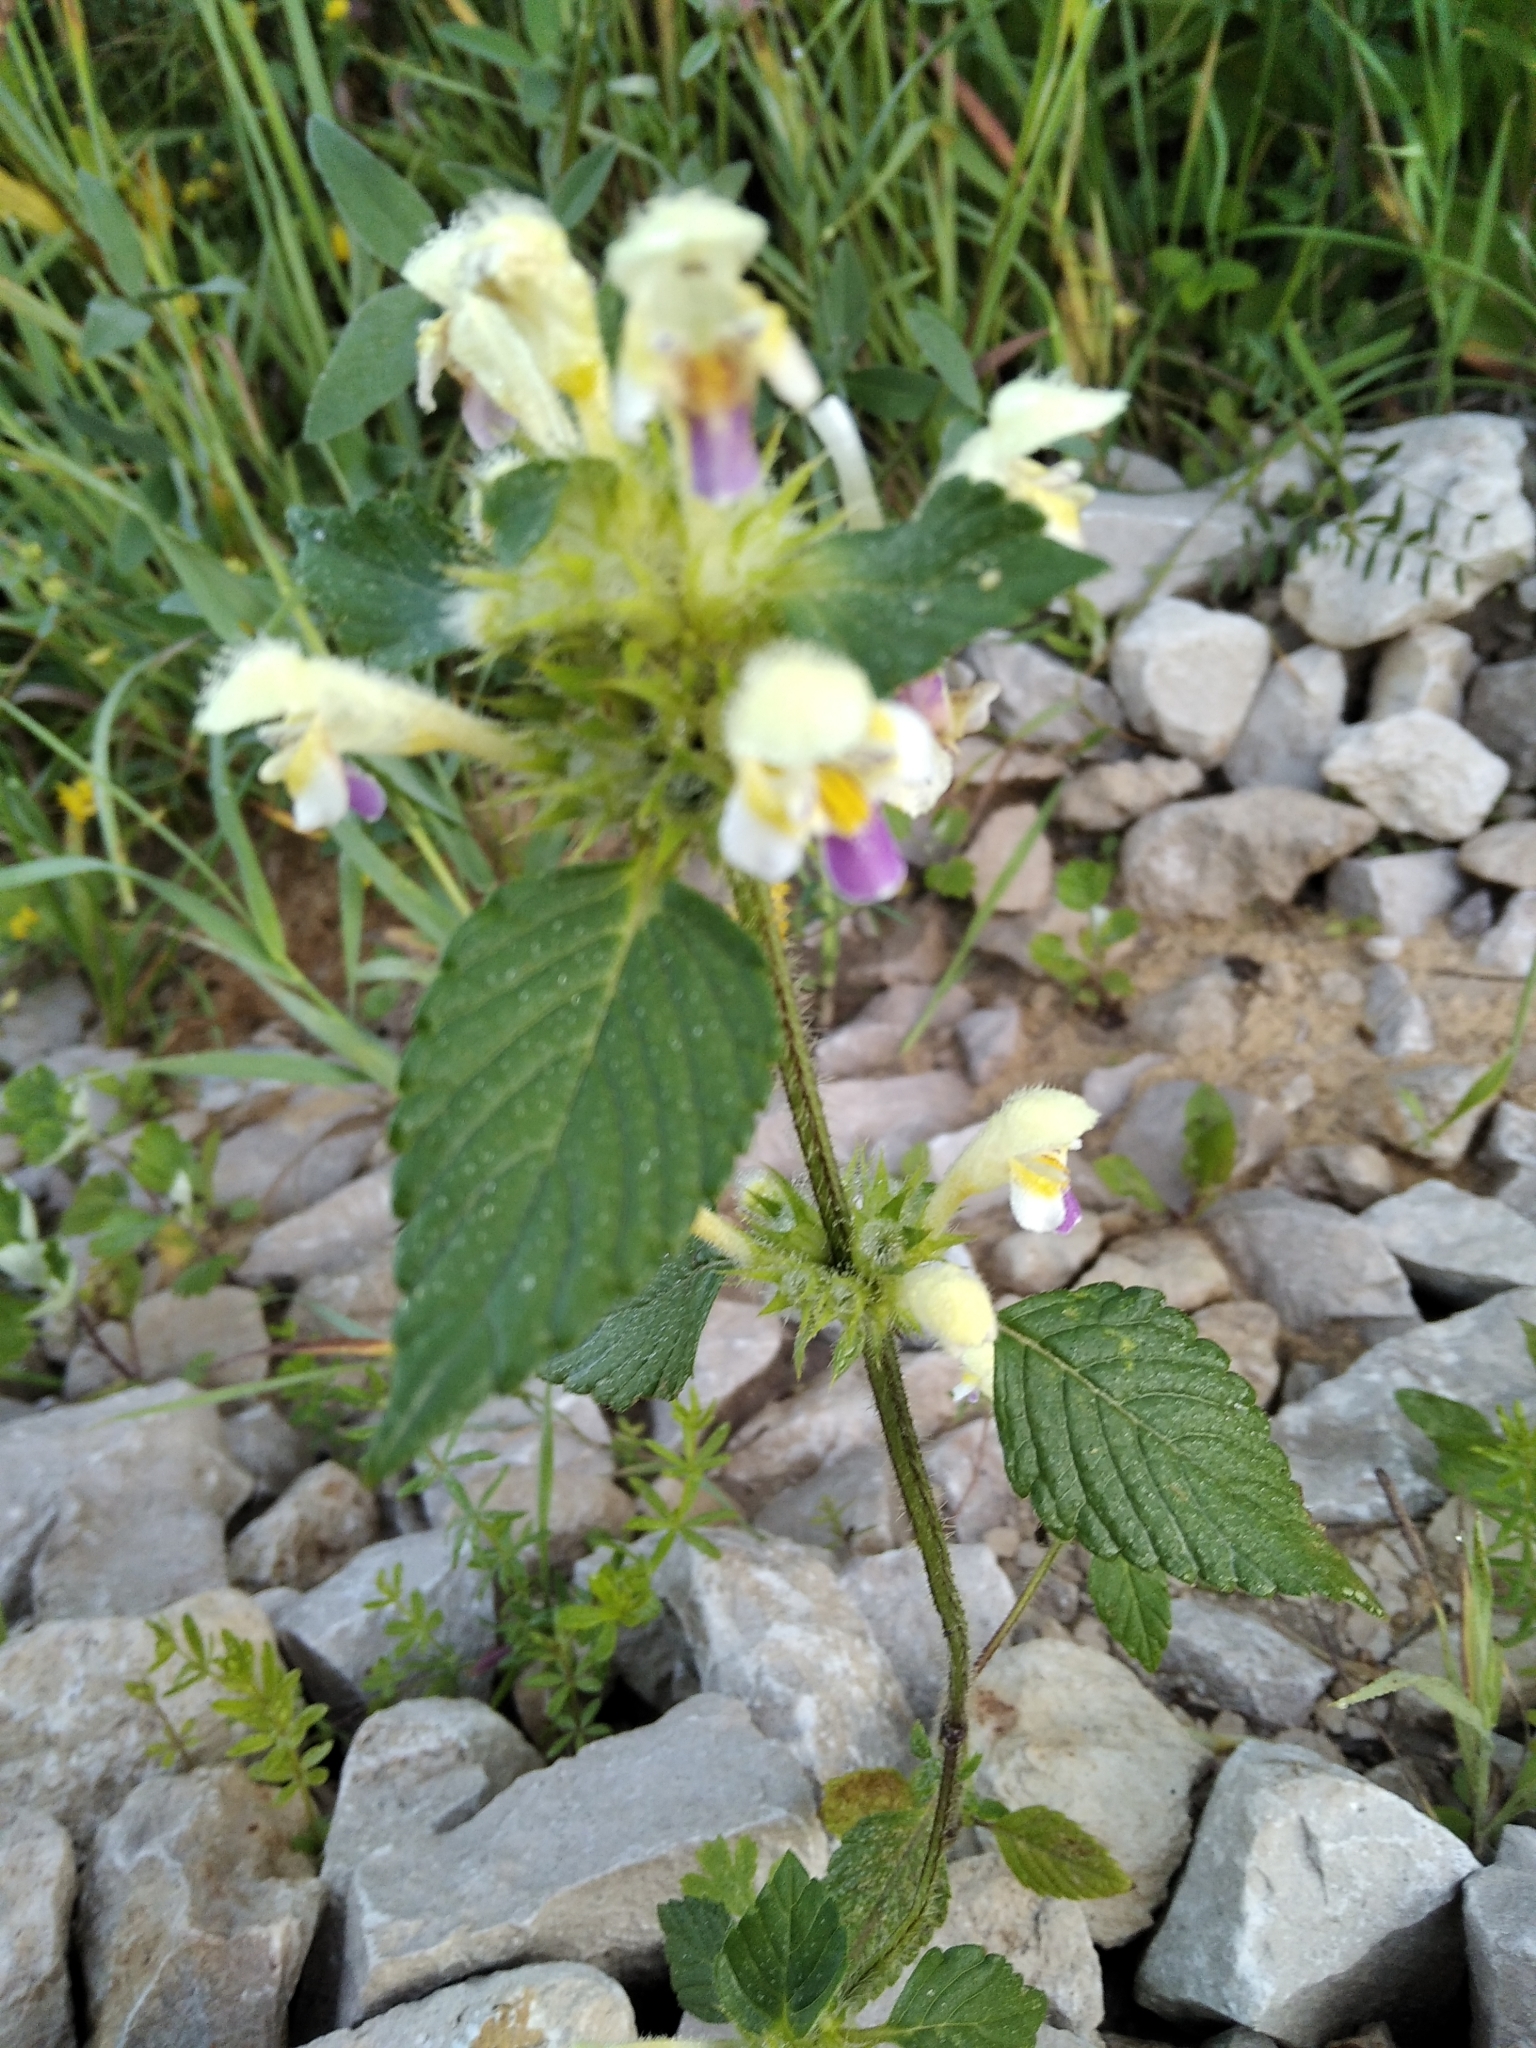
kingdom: Plantae
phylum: Tracheophyta
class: Magnoliopsida
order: Lamiales
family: Lamiaceae
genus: Galeopsis
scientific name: Galeopsis speciosa
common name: Large-flowered hemp-nettle
